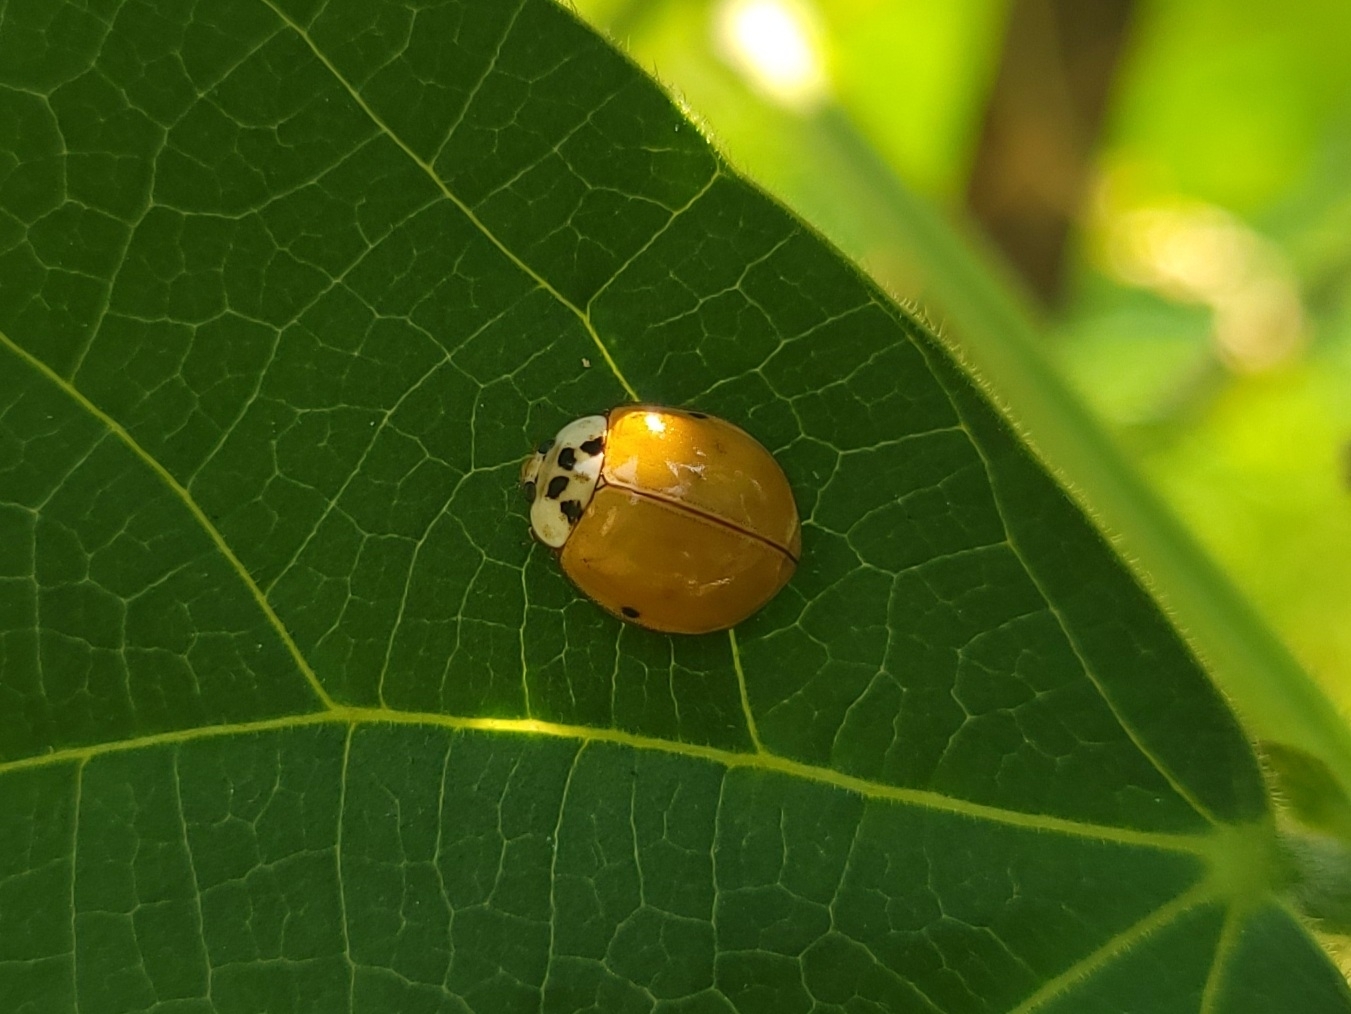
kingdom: Animalia
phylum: Arthropoda
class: Insecta
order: Coleoptera
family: Coccinellidae
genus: Harmonia
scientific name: Harmonia axyridis
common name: Harlequin ladybird
